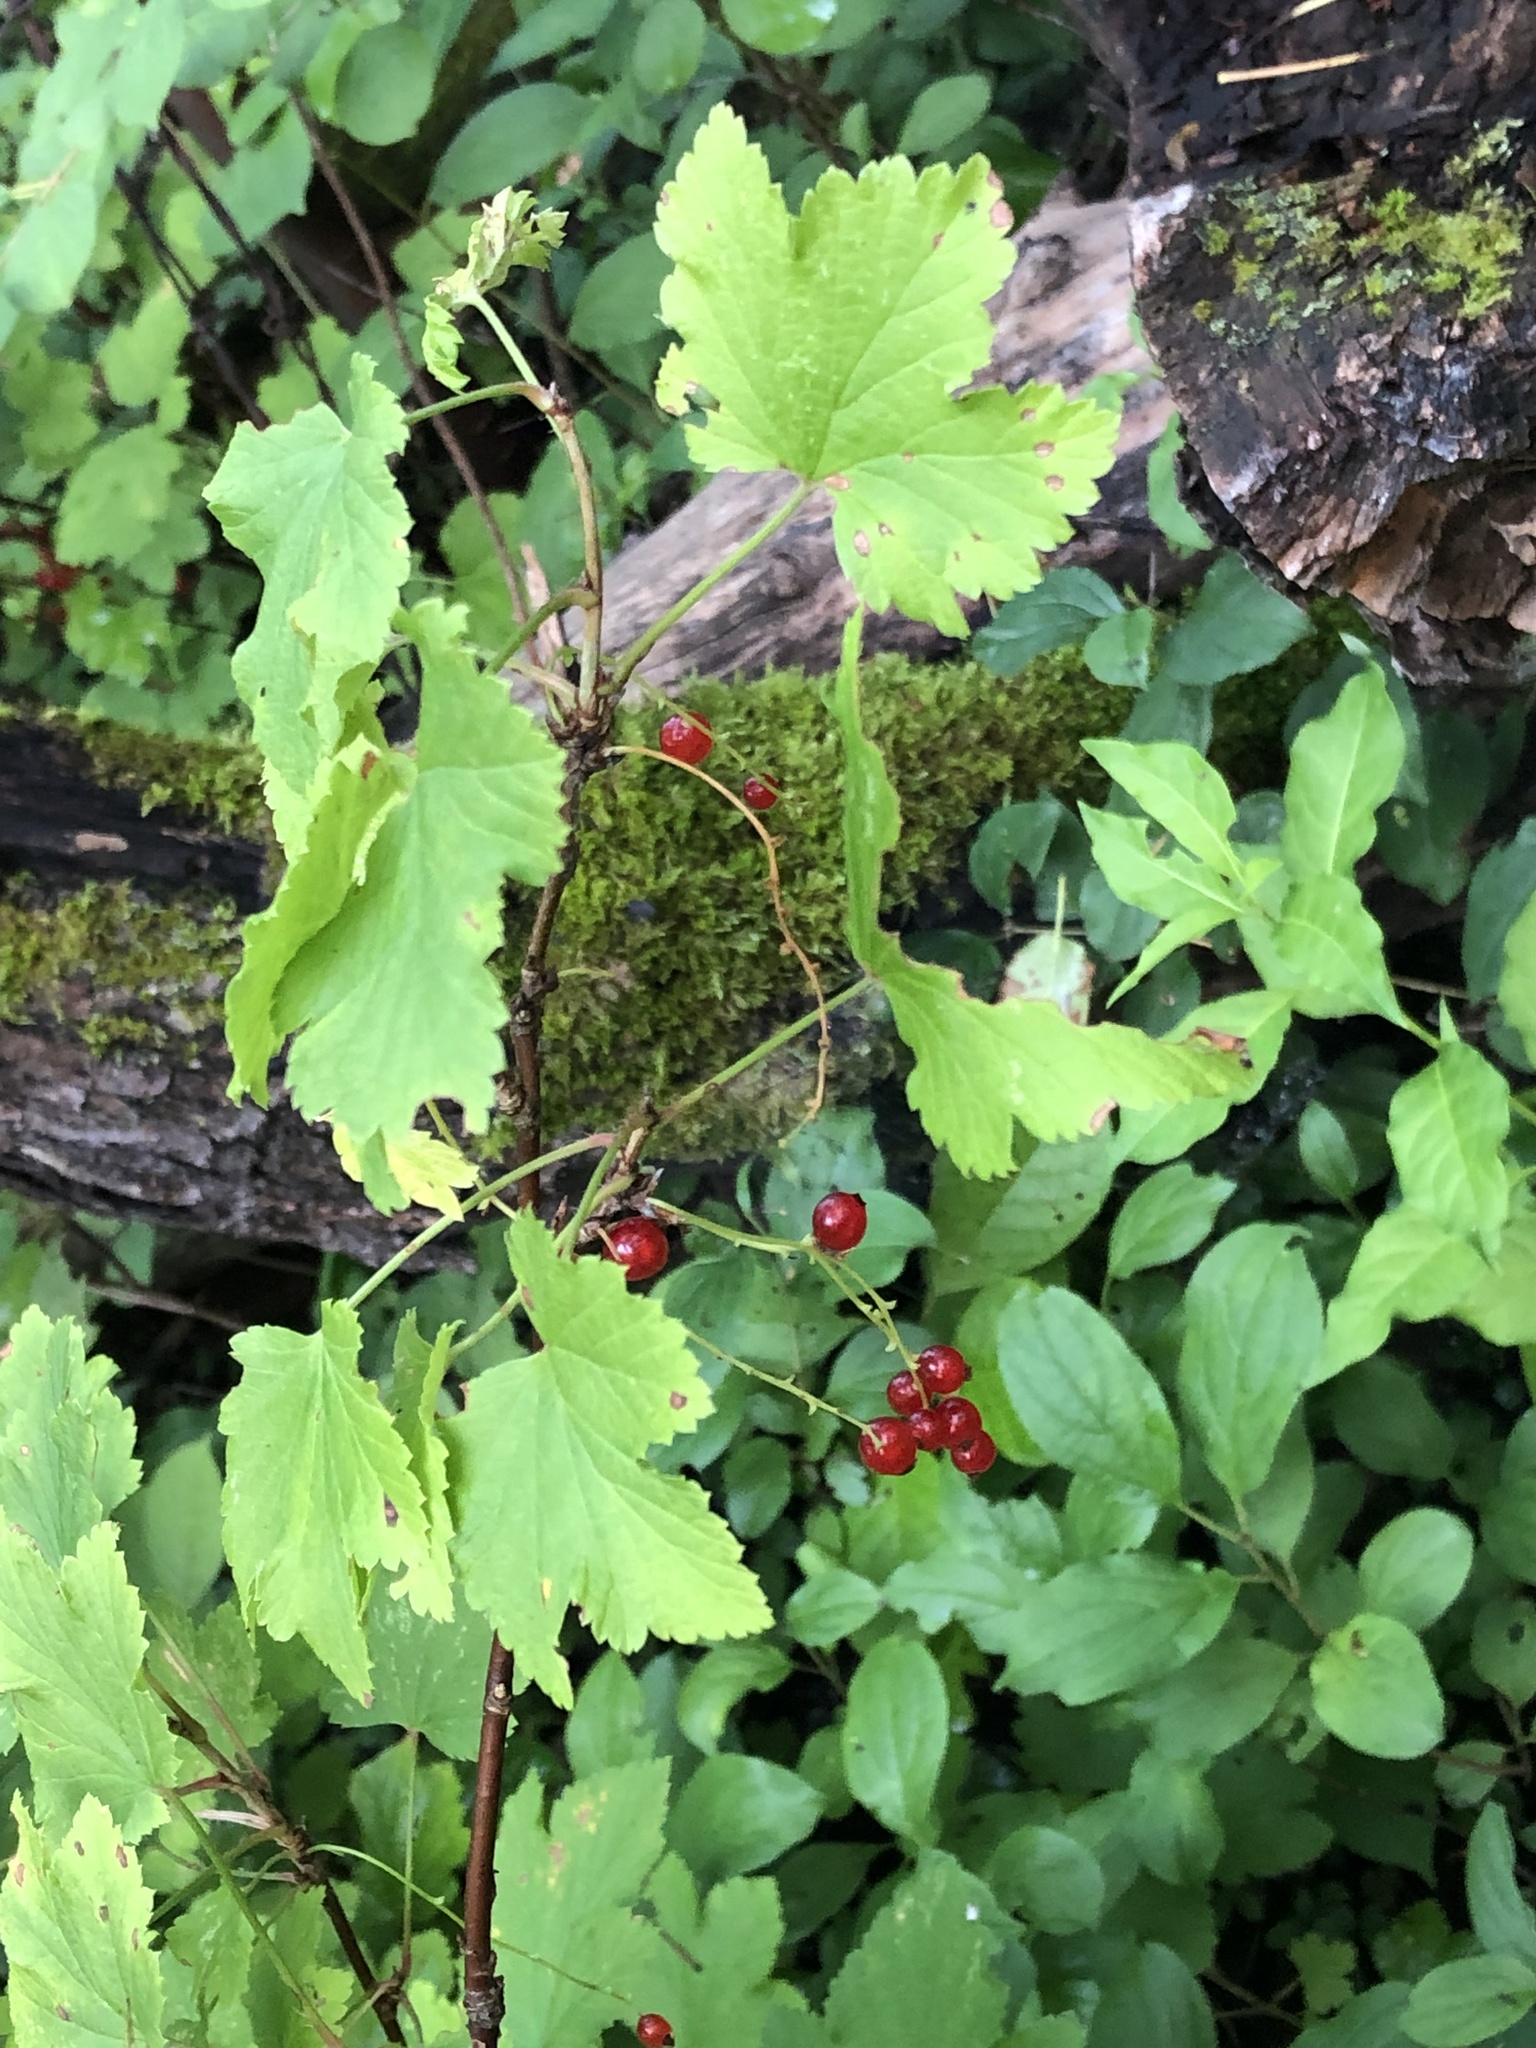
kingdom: Plantae
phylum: Tracheophyta
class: Magnoliopsida
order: Saxifragales
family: Grossulariaceae
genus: Ribes
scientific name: Ribes rubrum
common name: Red currant
